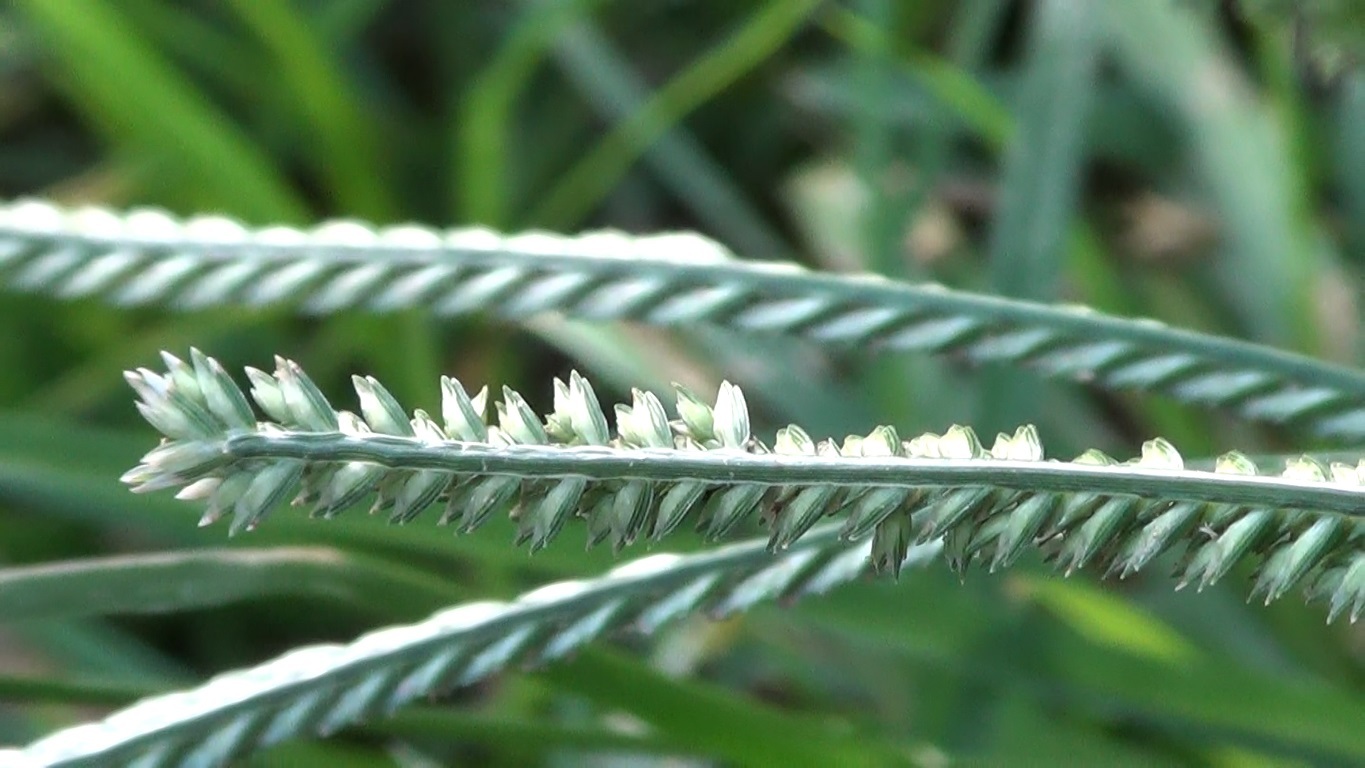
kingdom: Plantae
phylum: Tracheophyta
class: Liliopsida
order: Poales
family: Poaceae
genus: Eleusine
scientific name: Eleusine indica
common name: Yard-grass
